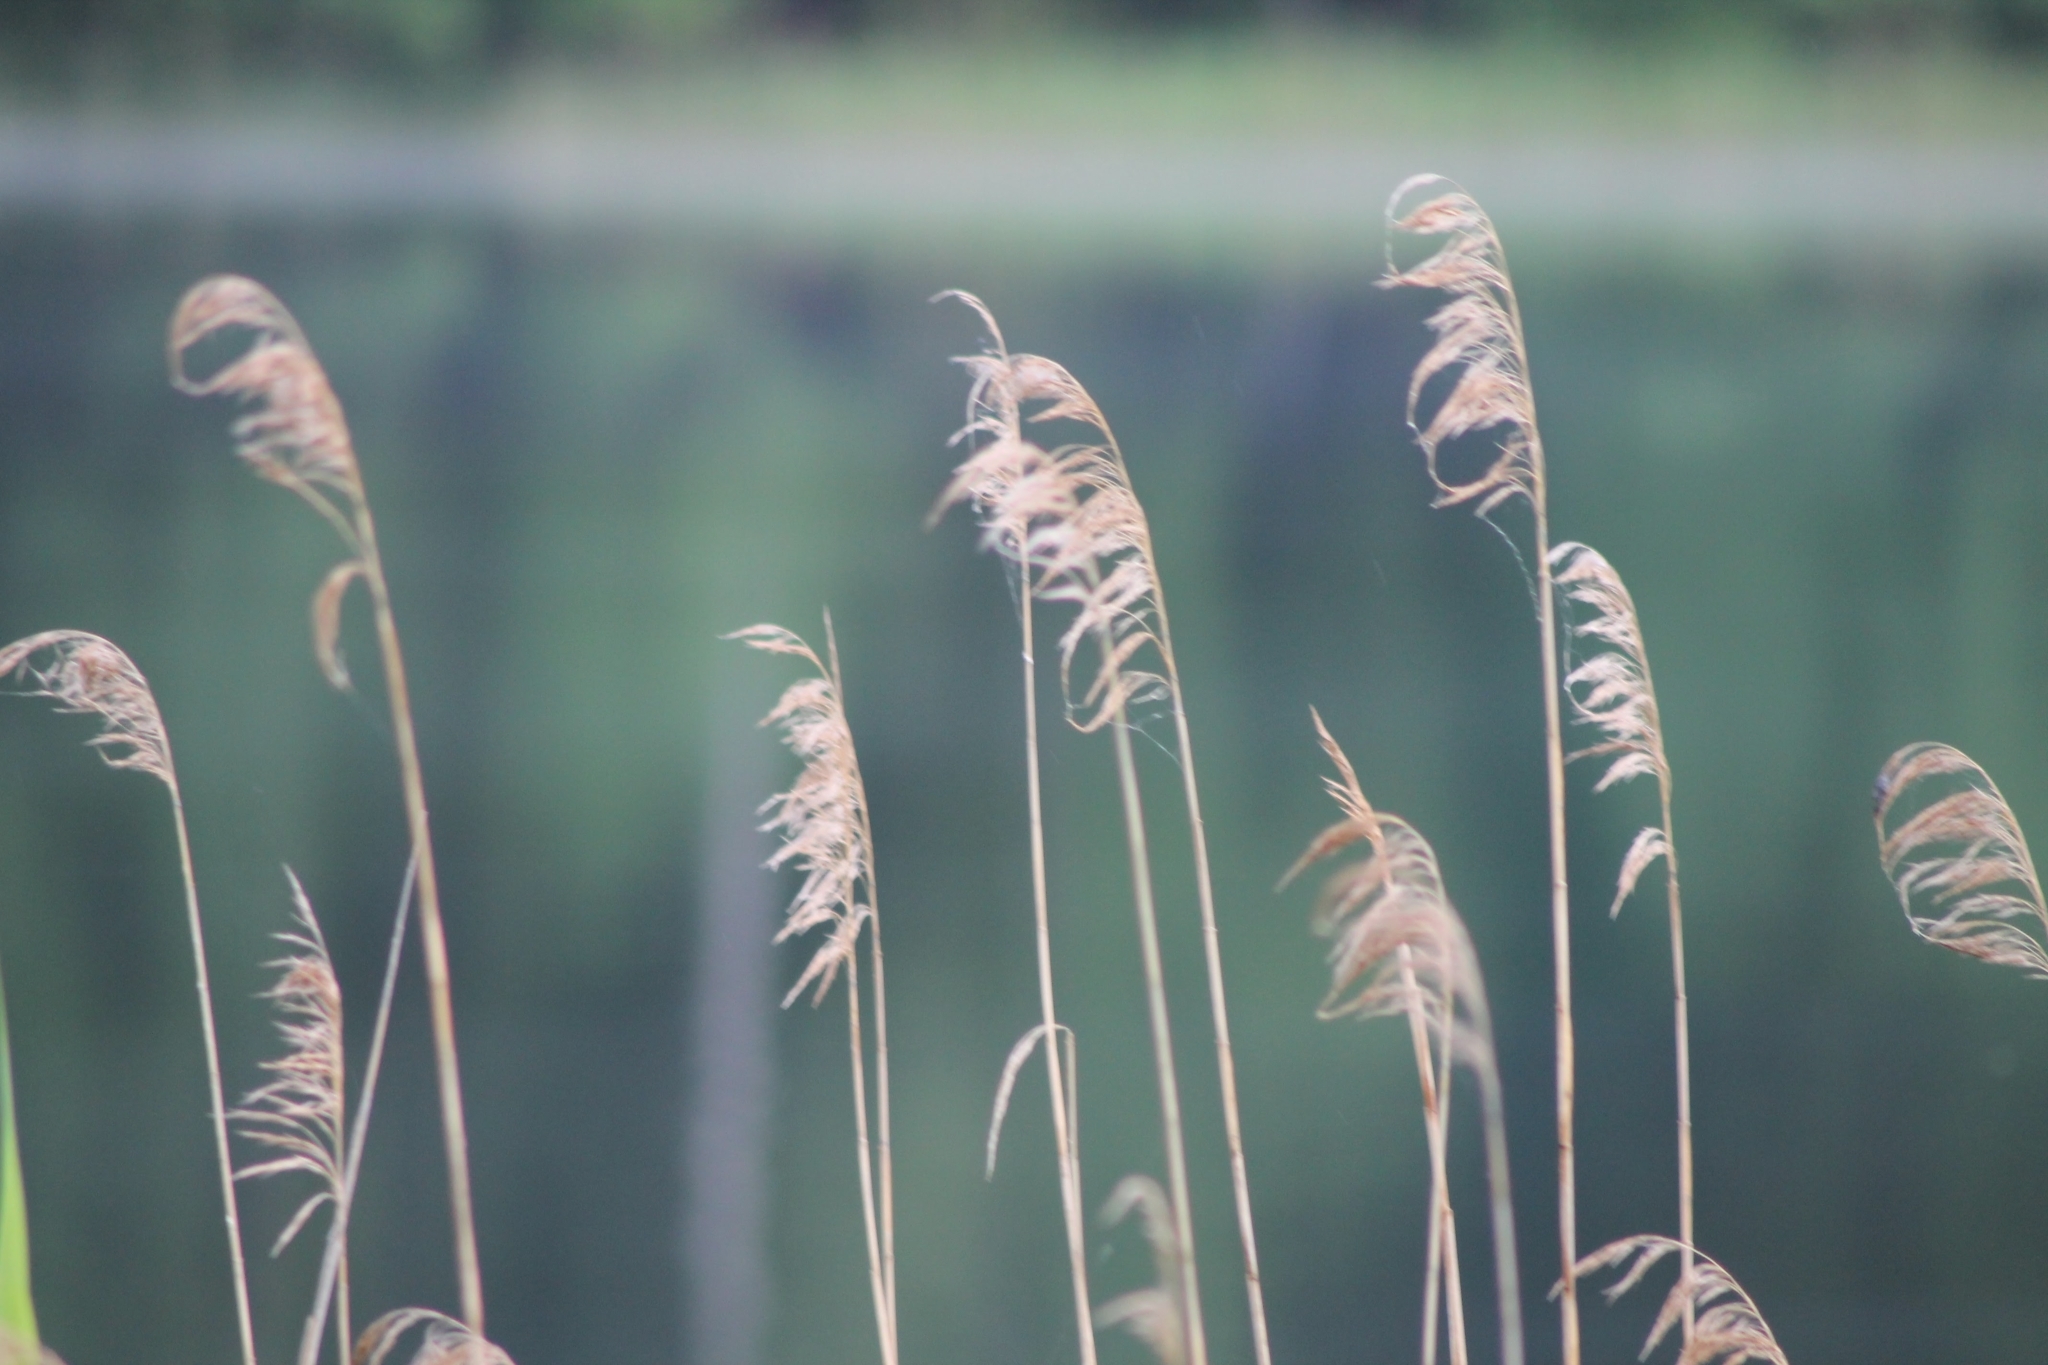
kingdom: Plantae
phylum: Tracheophyta
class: Liliopsida
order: Poales
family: Poaceae
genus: Phragmites
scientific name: Phragmites australis
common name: Common reed
